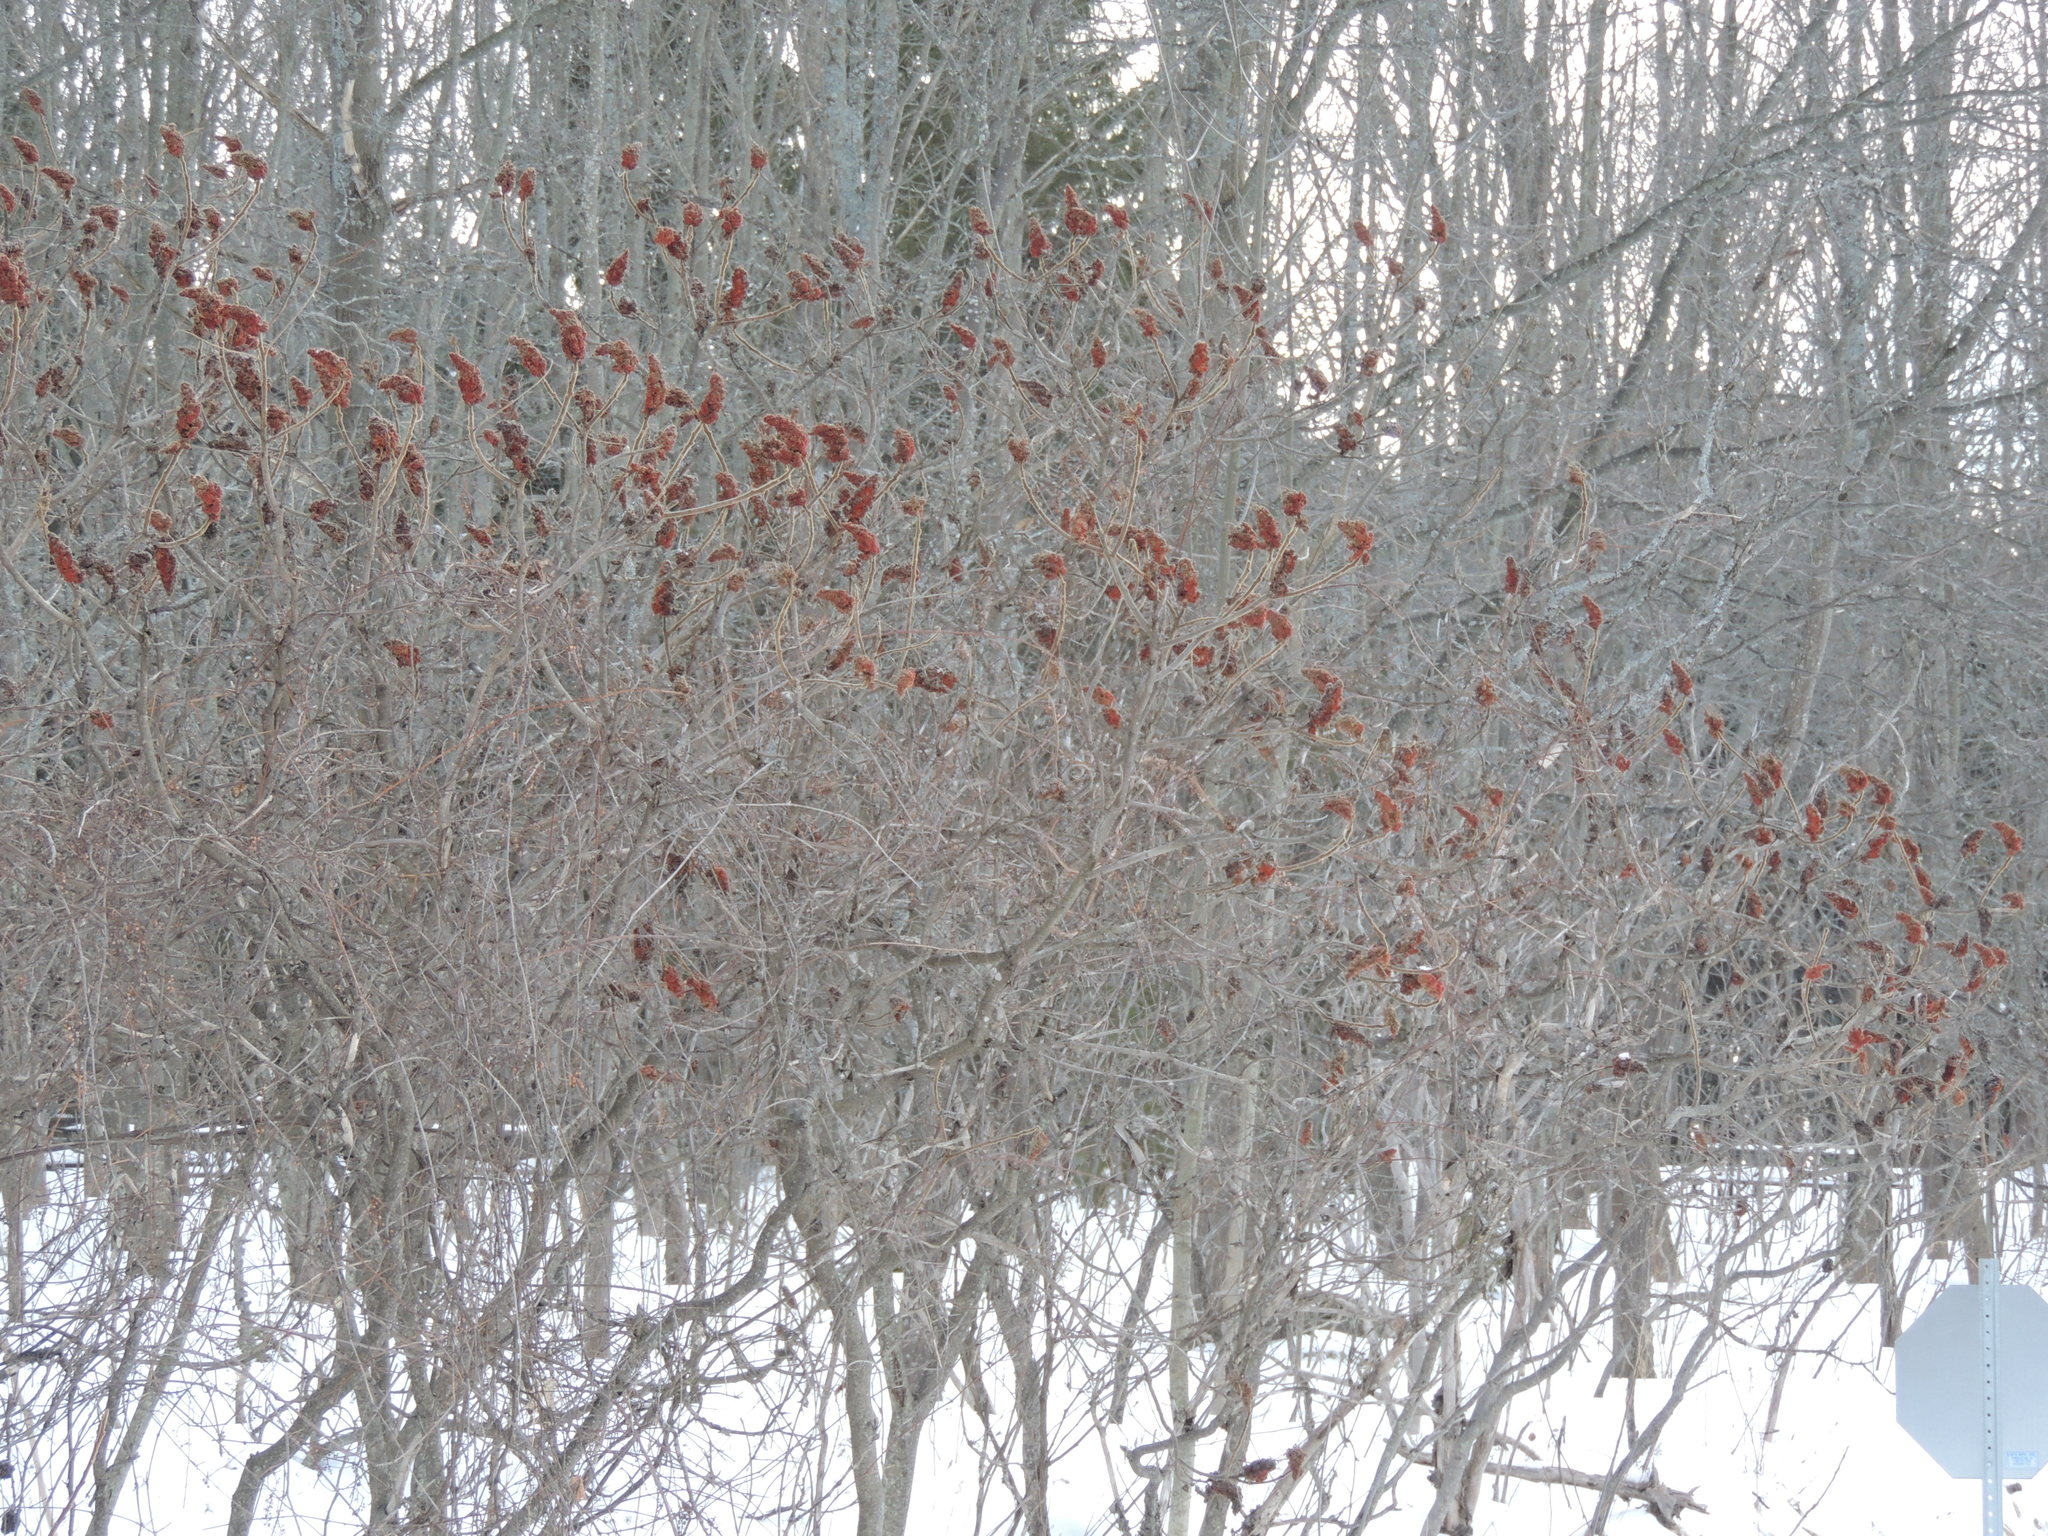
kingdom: Plantae
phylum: Tracheophyta
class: Magnoliopsida
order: Sapindales
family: Anacardiaceae
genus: Rhus
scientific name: Rhus typhina
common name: Staghorn sumac
